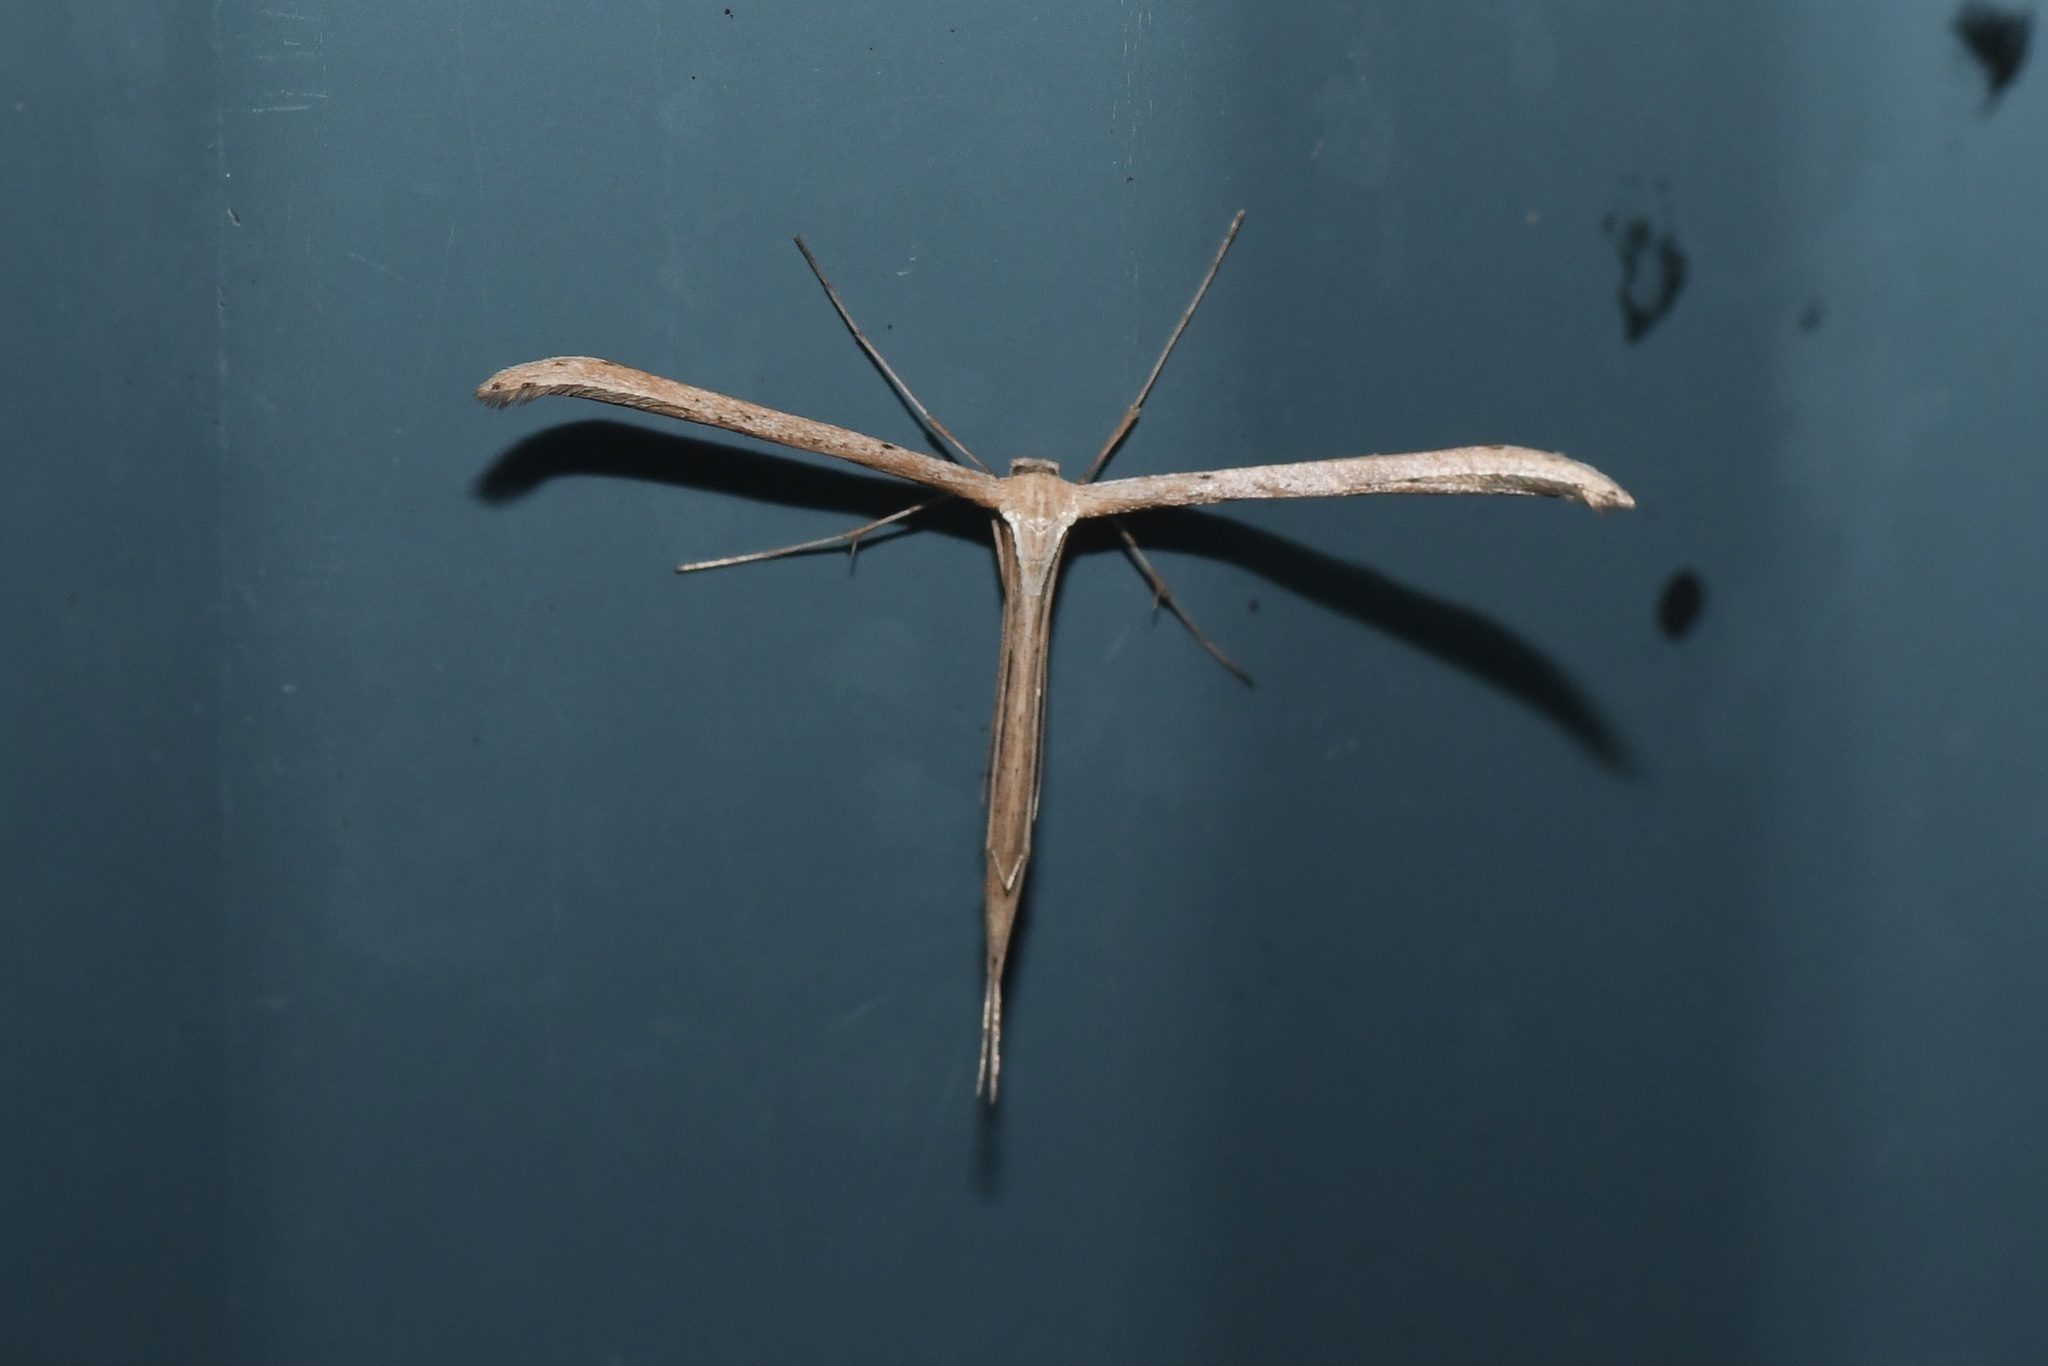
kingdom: Animalia
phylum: Arthropoda
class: Insecta
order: Lepidoptera
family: Pterophoridae
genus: Emmelina
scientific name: Emmelina monodactyla
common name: Common plume
